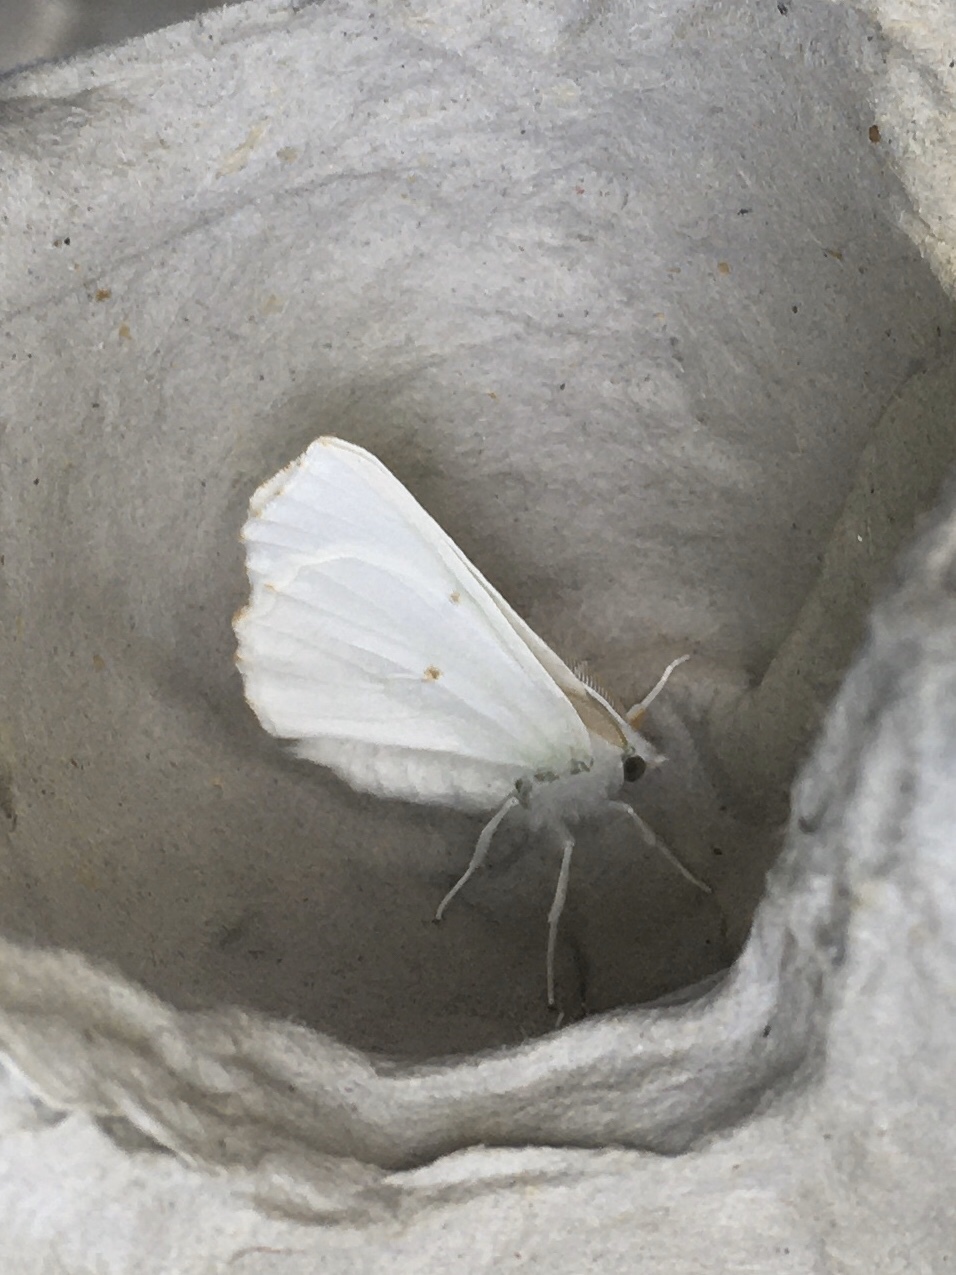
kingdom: Animalia
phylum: Arthropoda
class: Insecta
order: Lepidoptera
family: Geometridae
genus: Ennomos
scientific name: Ennomos subsignaria
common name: Elm spanworm
